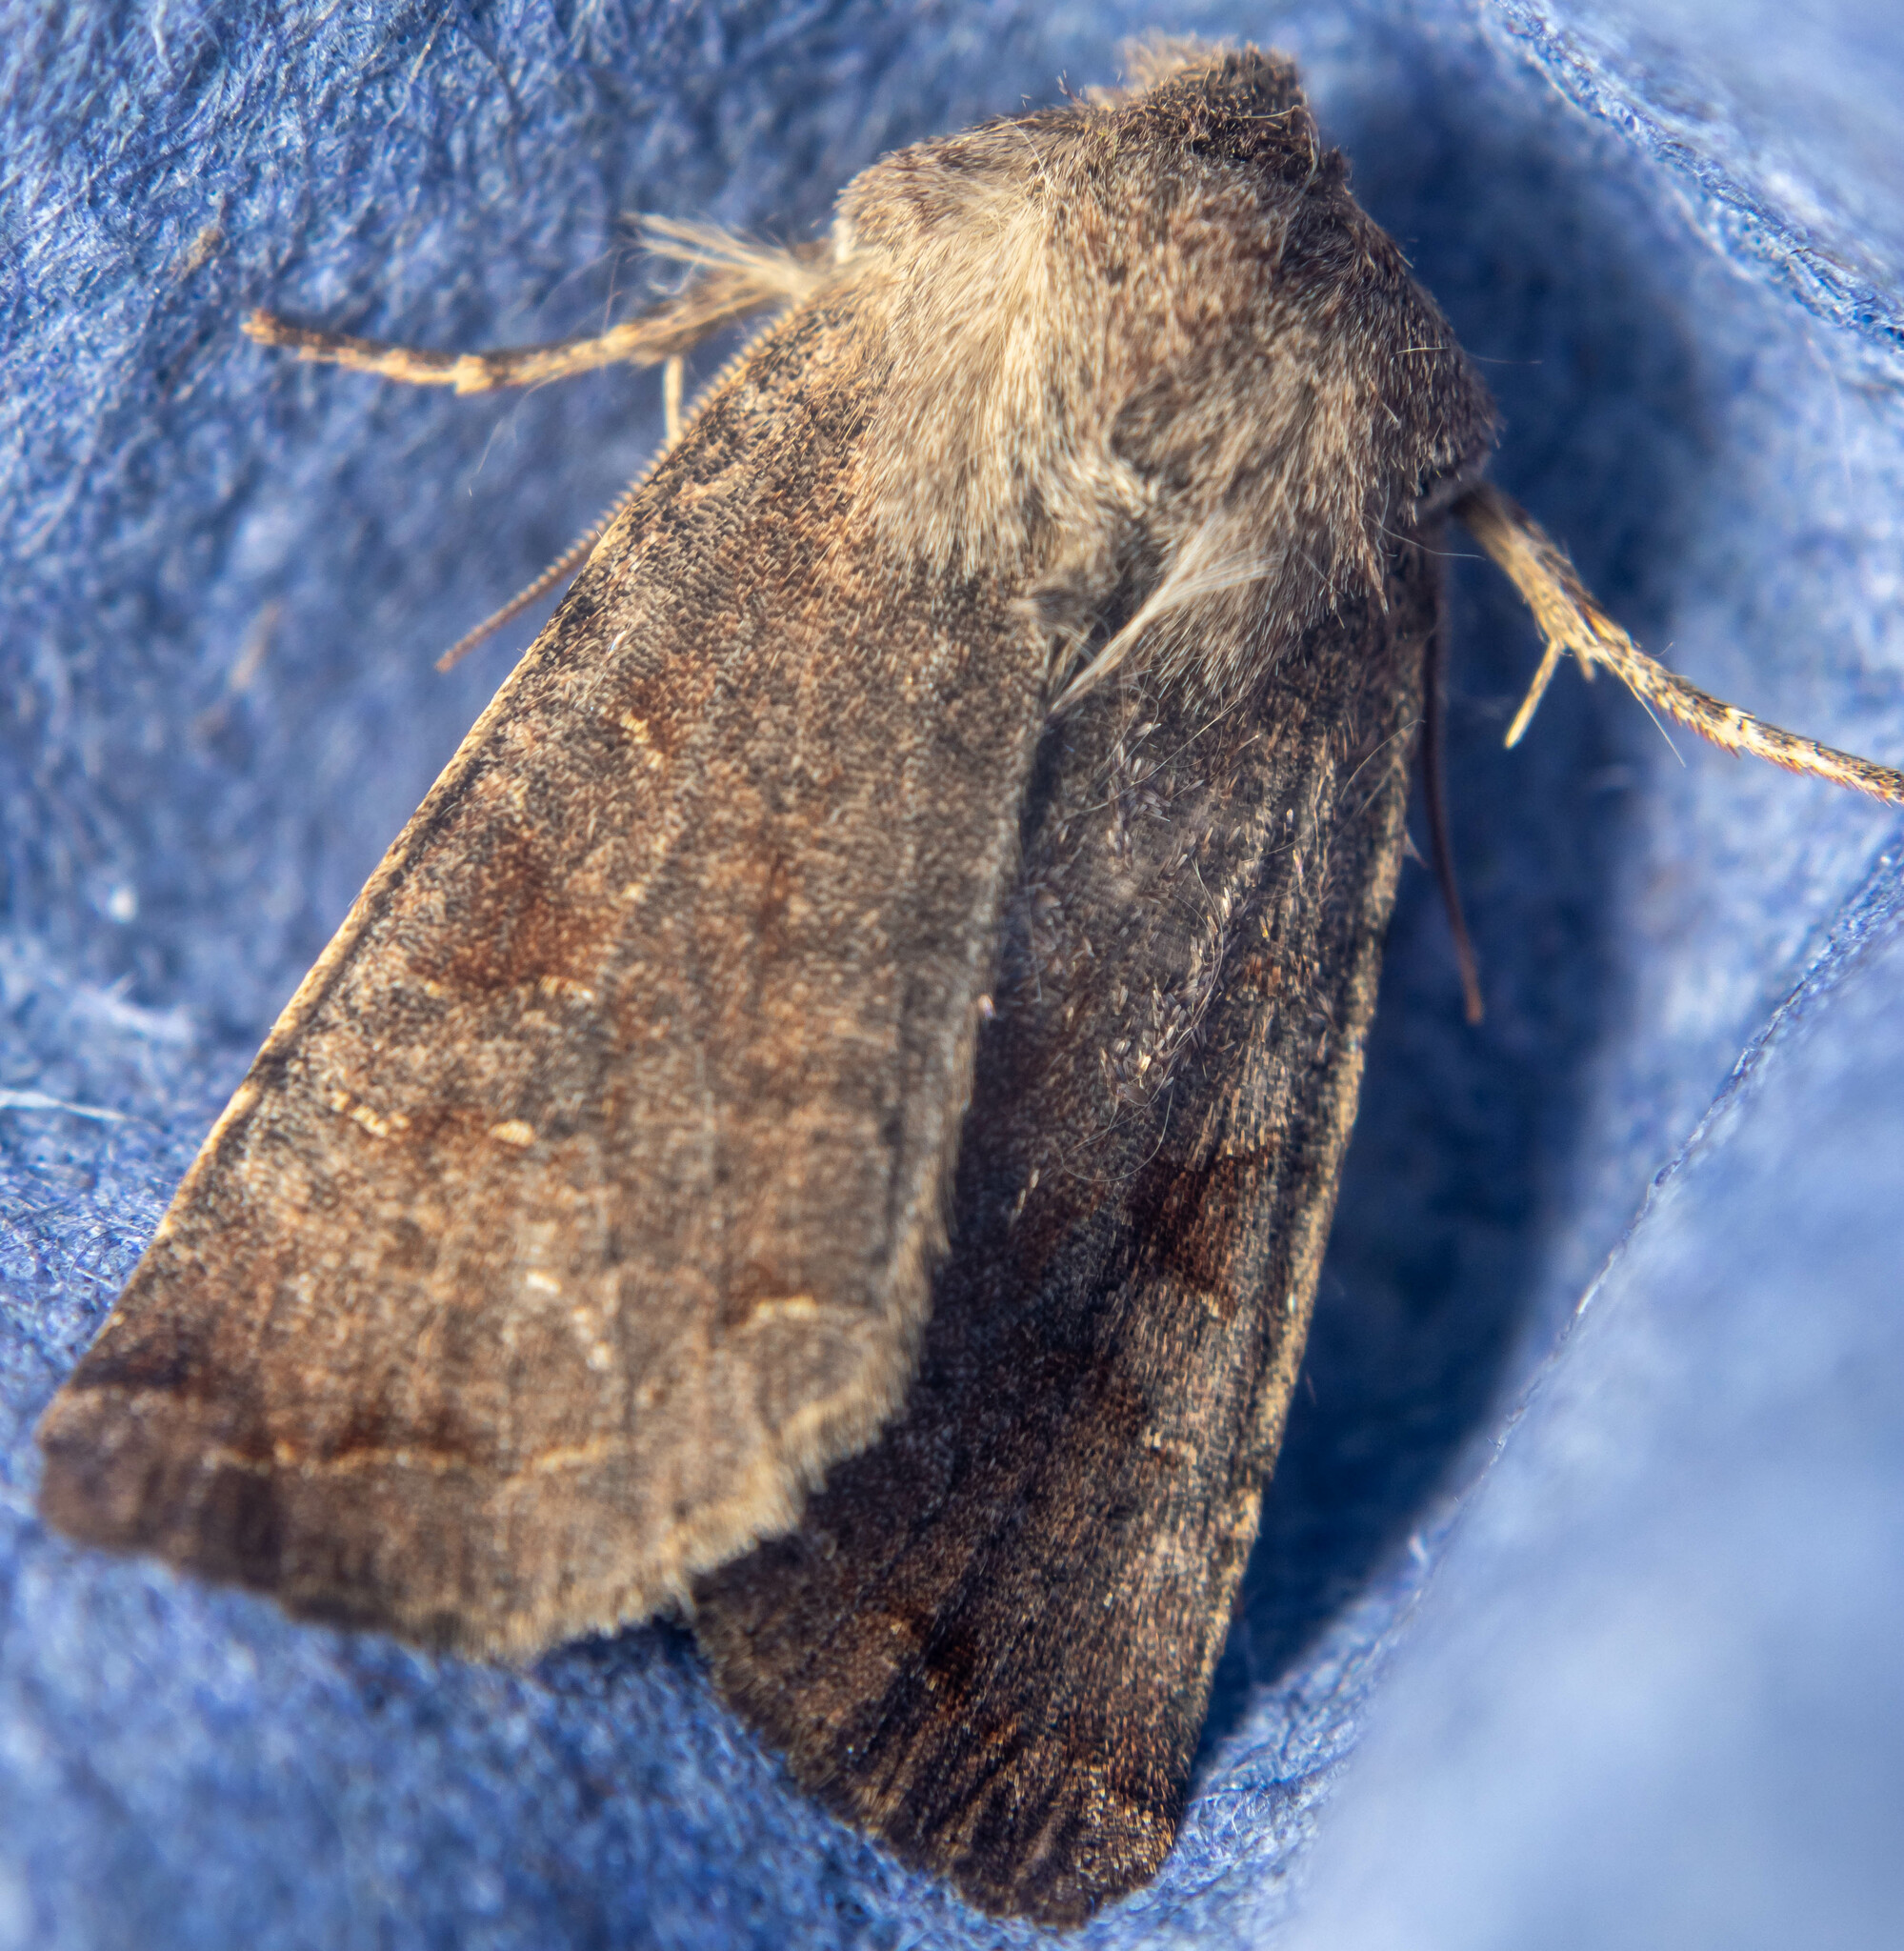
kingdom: Animalia
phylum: Arthropoda
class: Insecta
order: Lepidoptera
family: Noctuidae
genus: Orthosia
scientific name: Orthosia incerta
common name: Clouded drab
